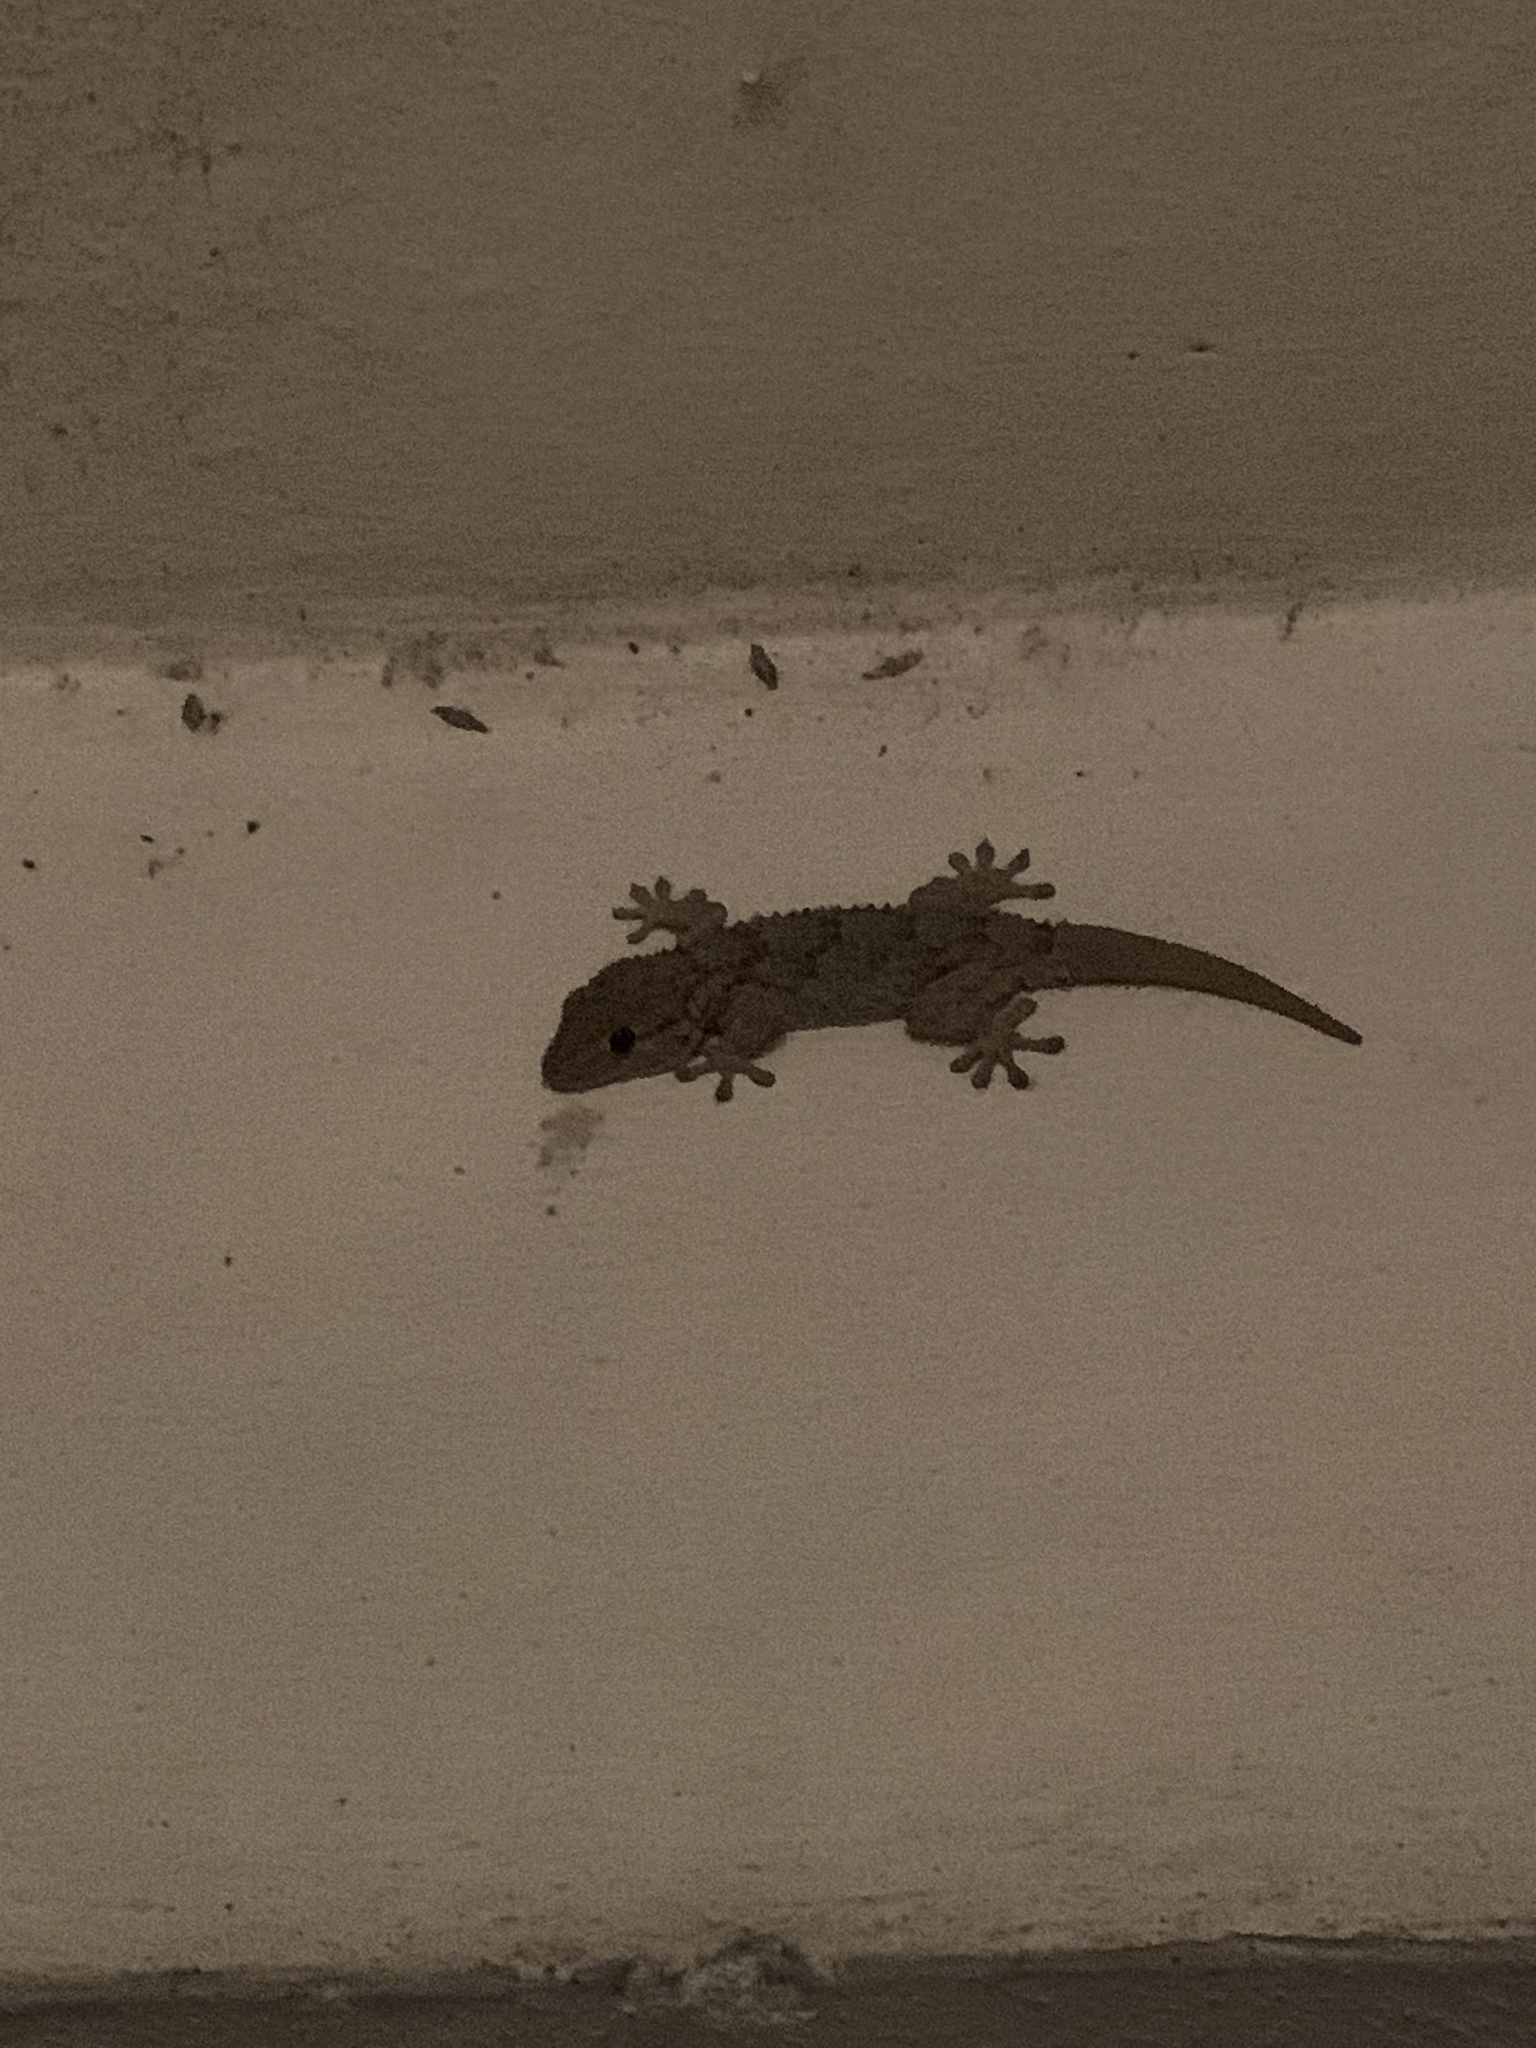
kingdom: Animalia
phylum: Chordata
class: Squamata
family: Phyllodactylidae
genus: Tarentola
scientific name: Tarentola mauritanica
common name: Moorish gecko
